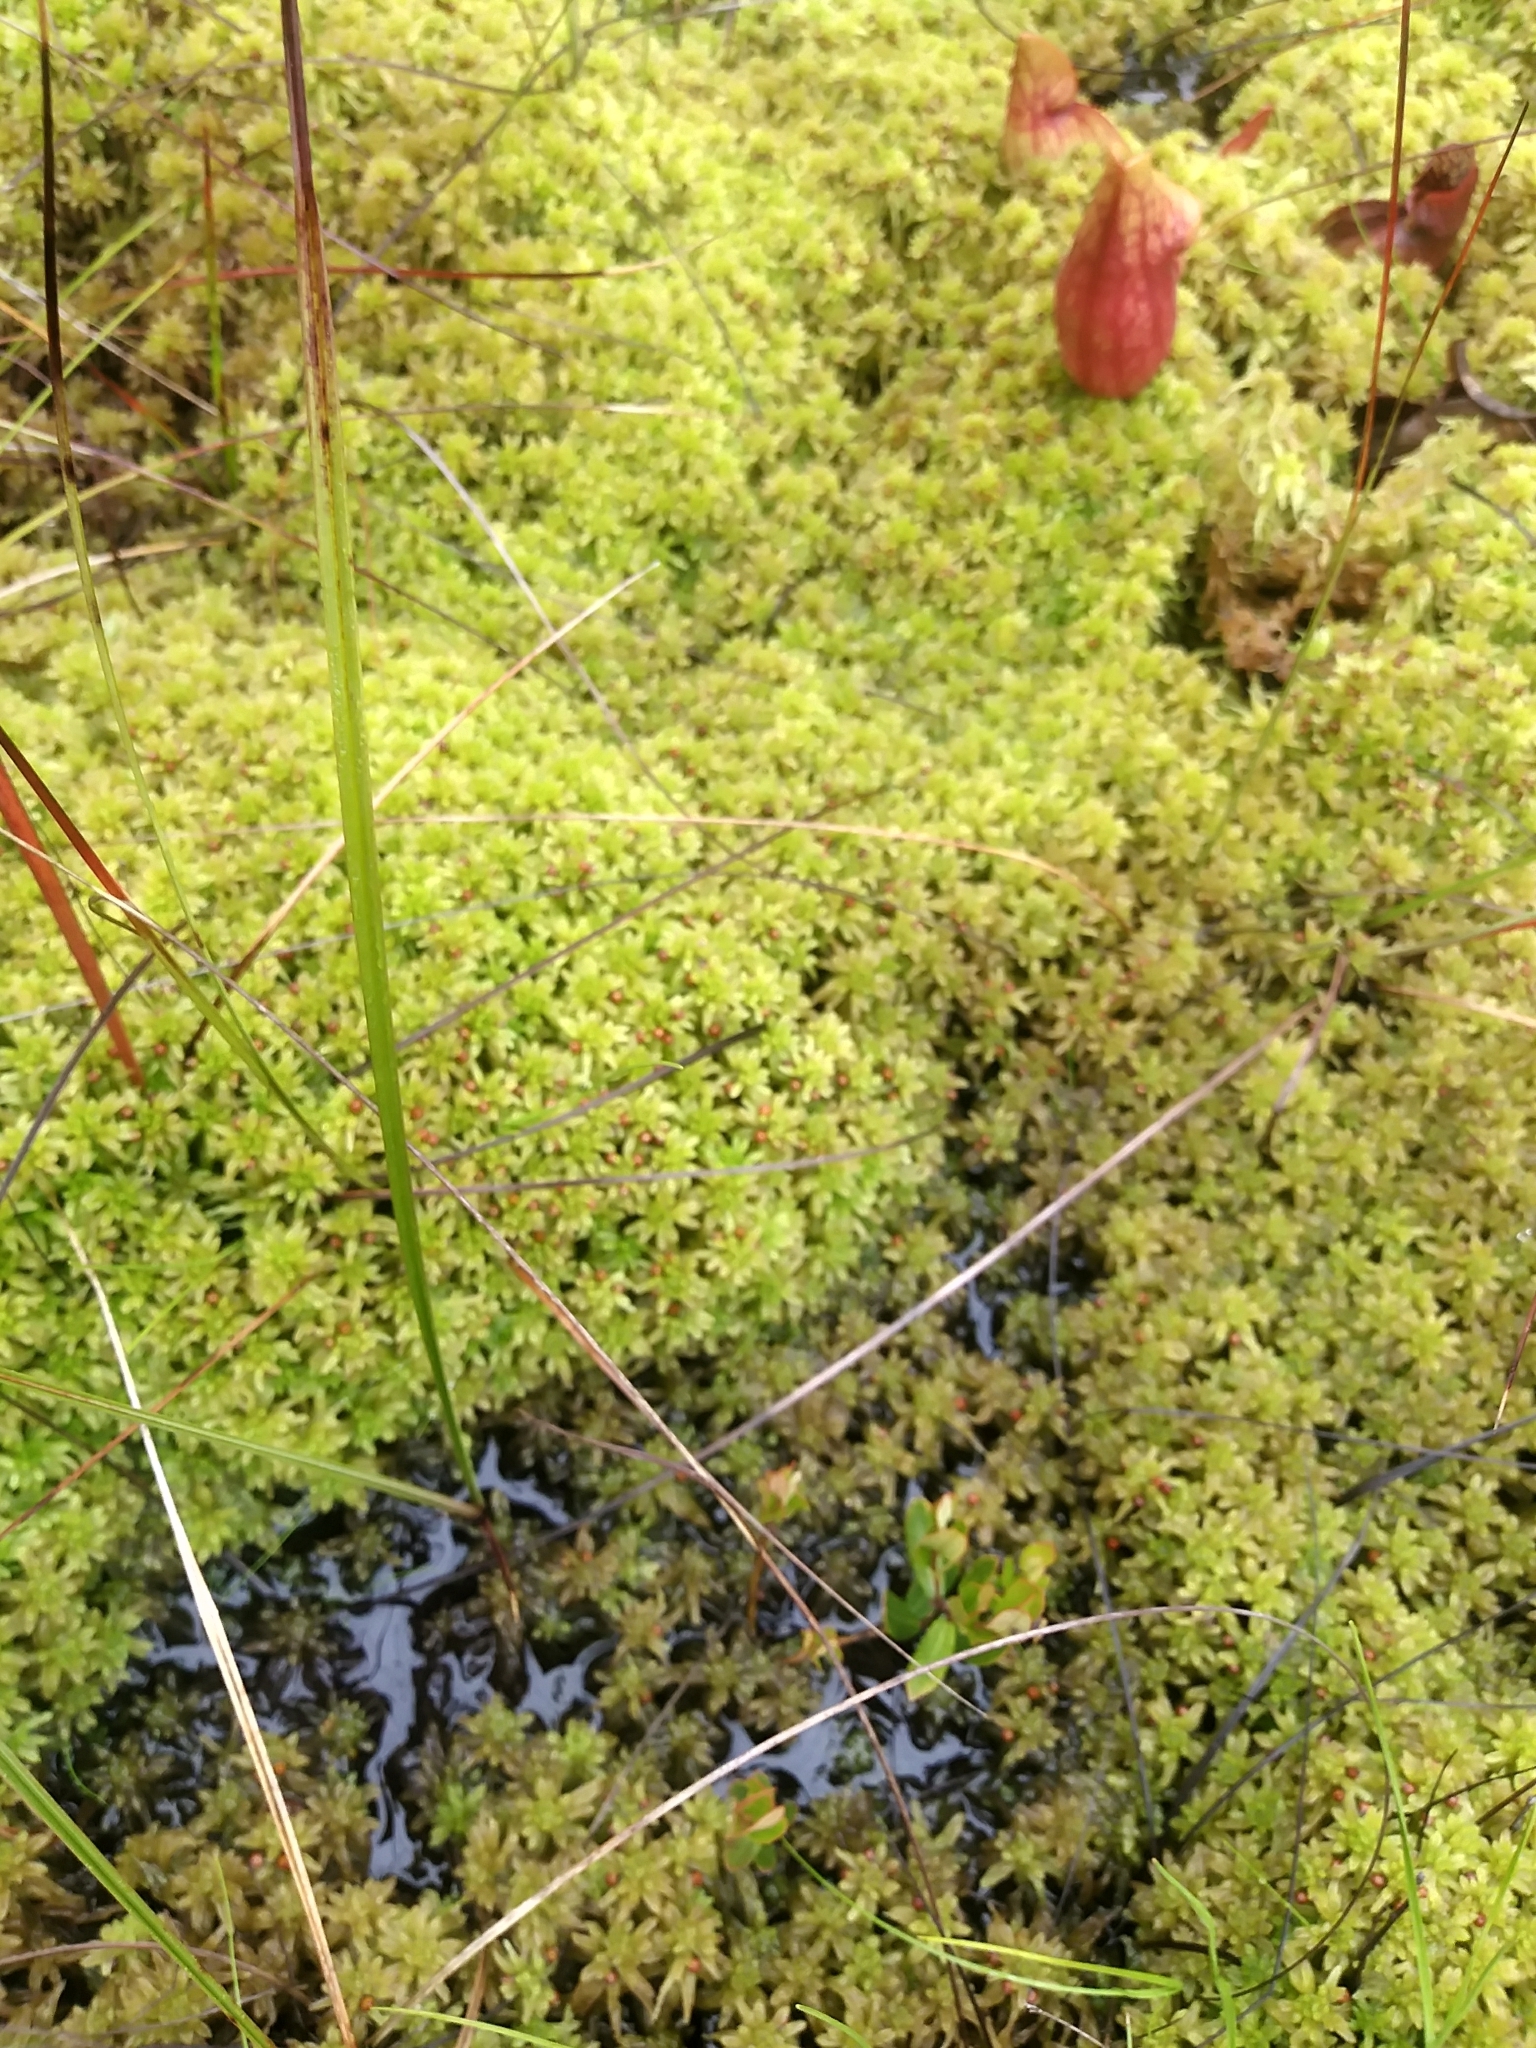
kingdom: Plantae
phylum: Bryophyta
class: Sphagnopsida
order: Sphagnales
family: Sphagnaceae
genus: Sphagnum
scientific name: Sphagnum pulchrum
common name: Beautiful peat moss
